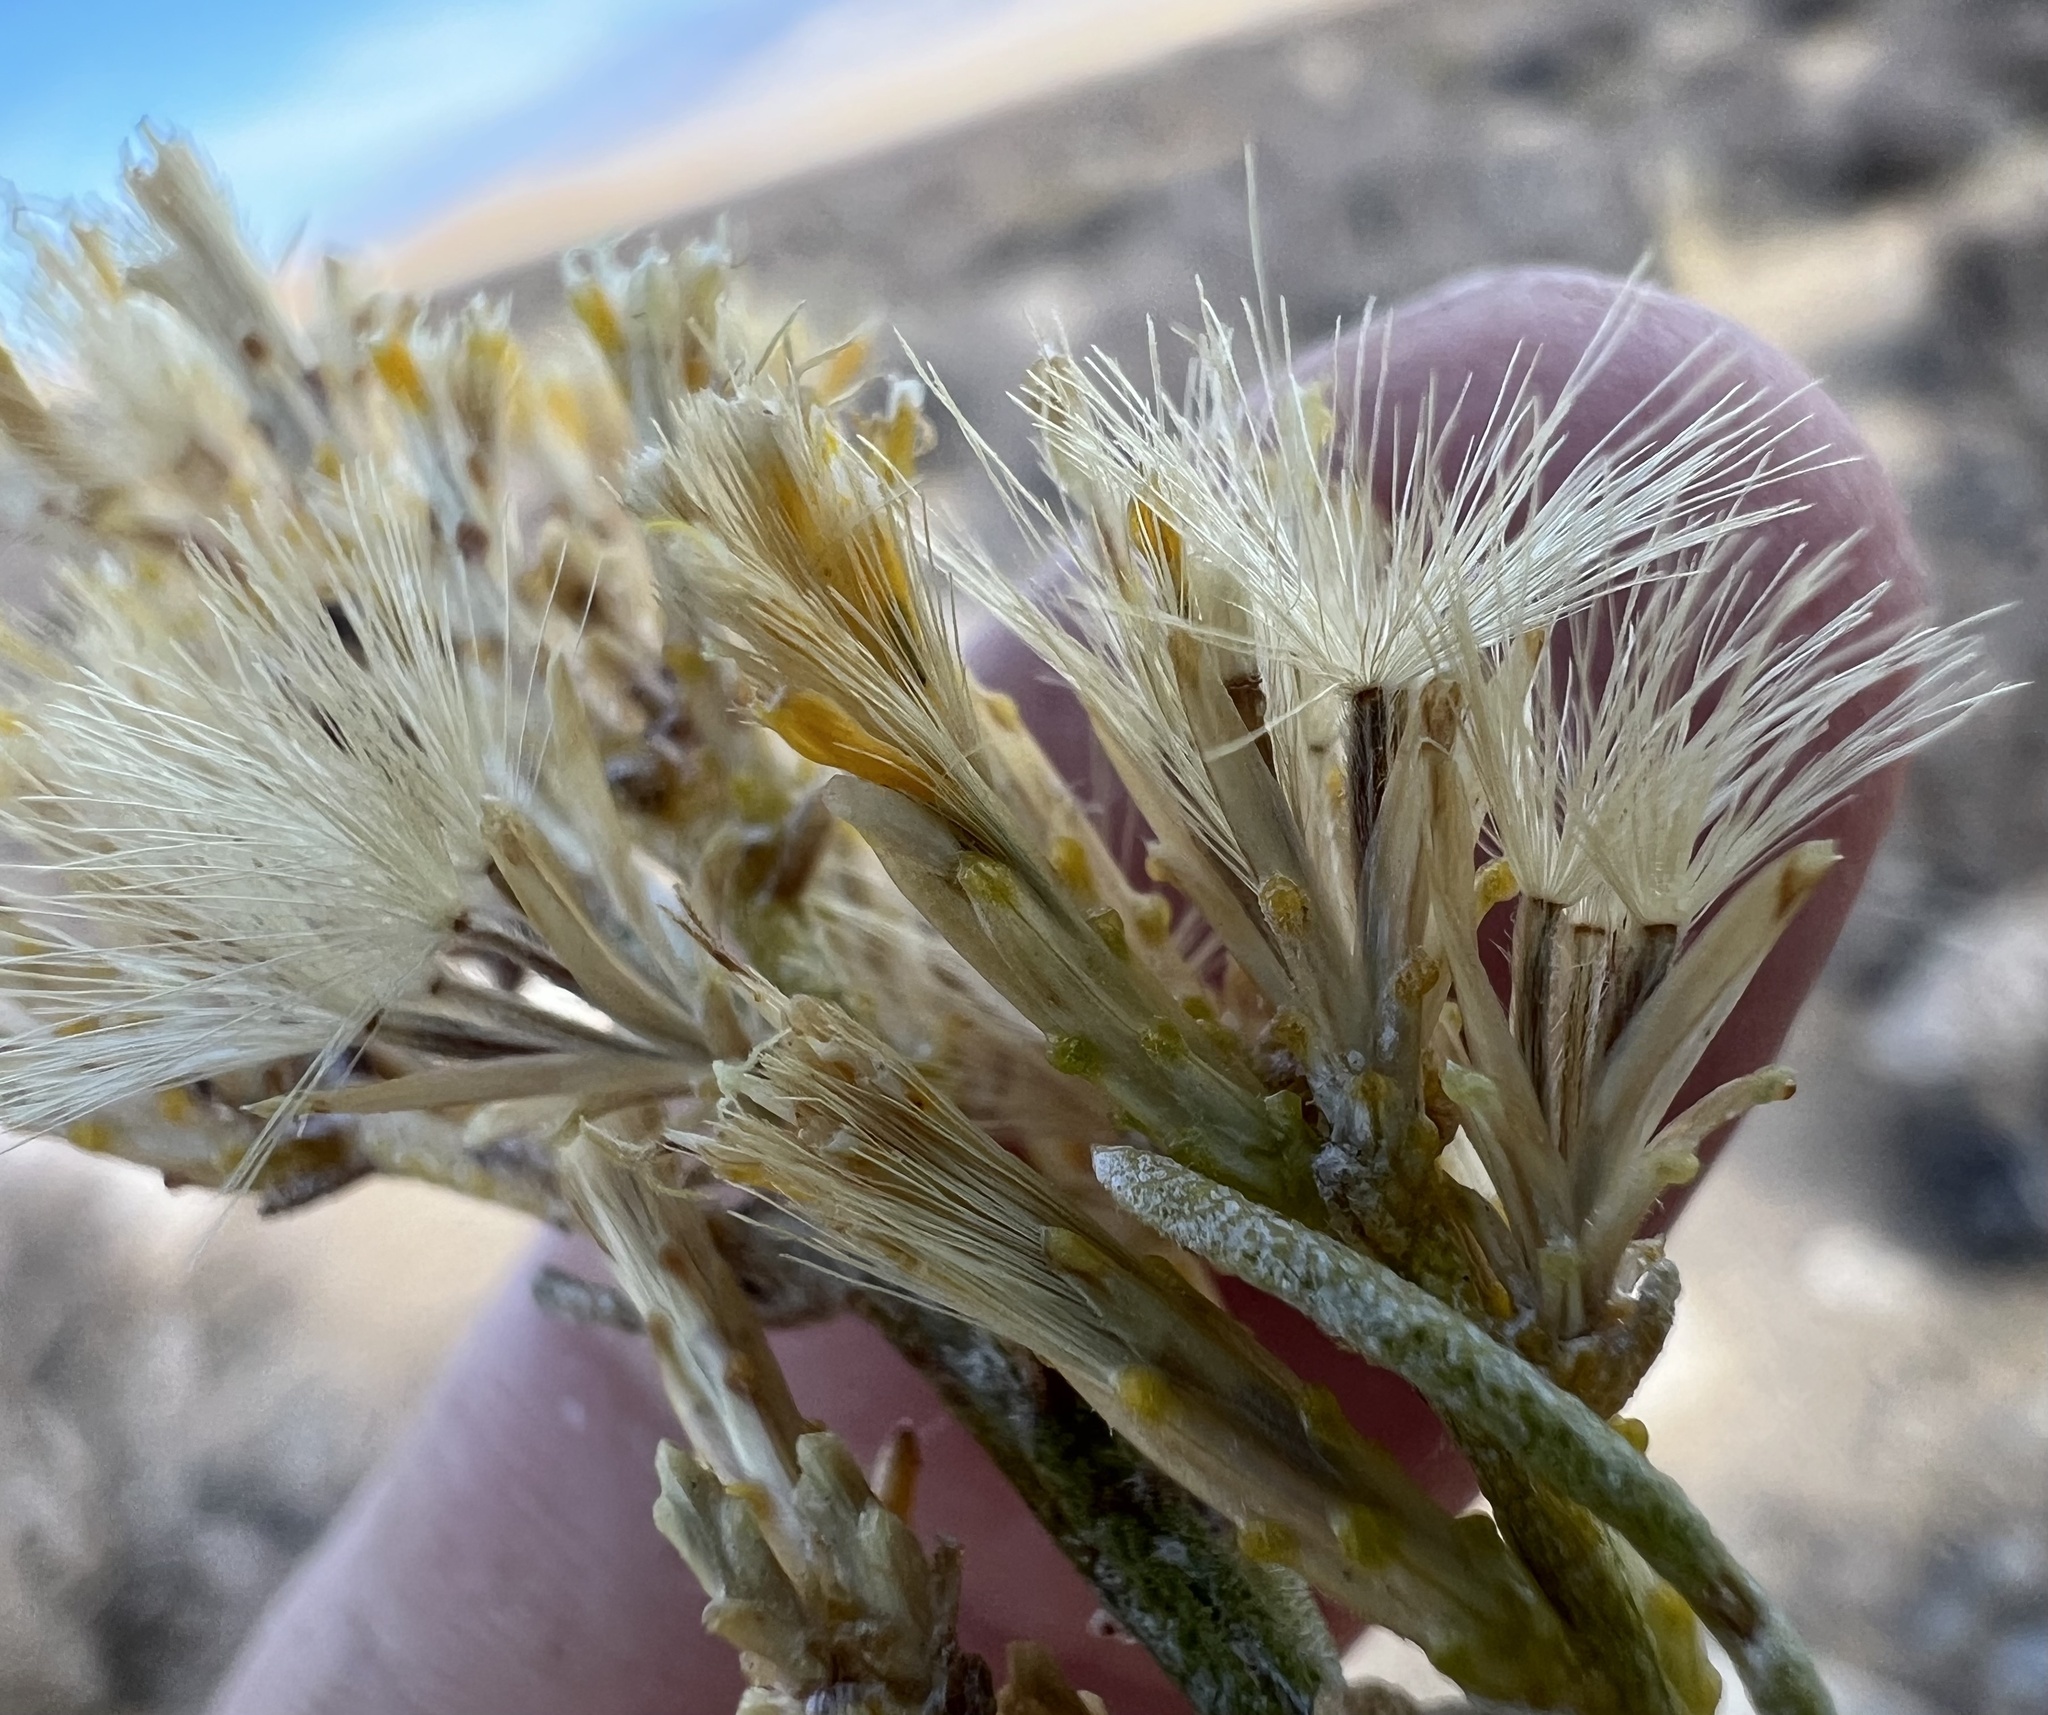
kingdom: Plantae
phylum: Tracheophyta
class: Magnoliopsida
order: Asterales
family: Asteraceae
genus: Ericameria
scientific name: Ericameria teretifolia
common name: Round-leaf rabbitbrush
